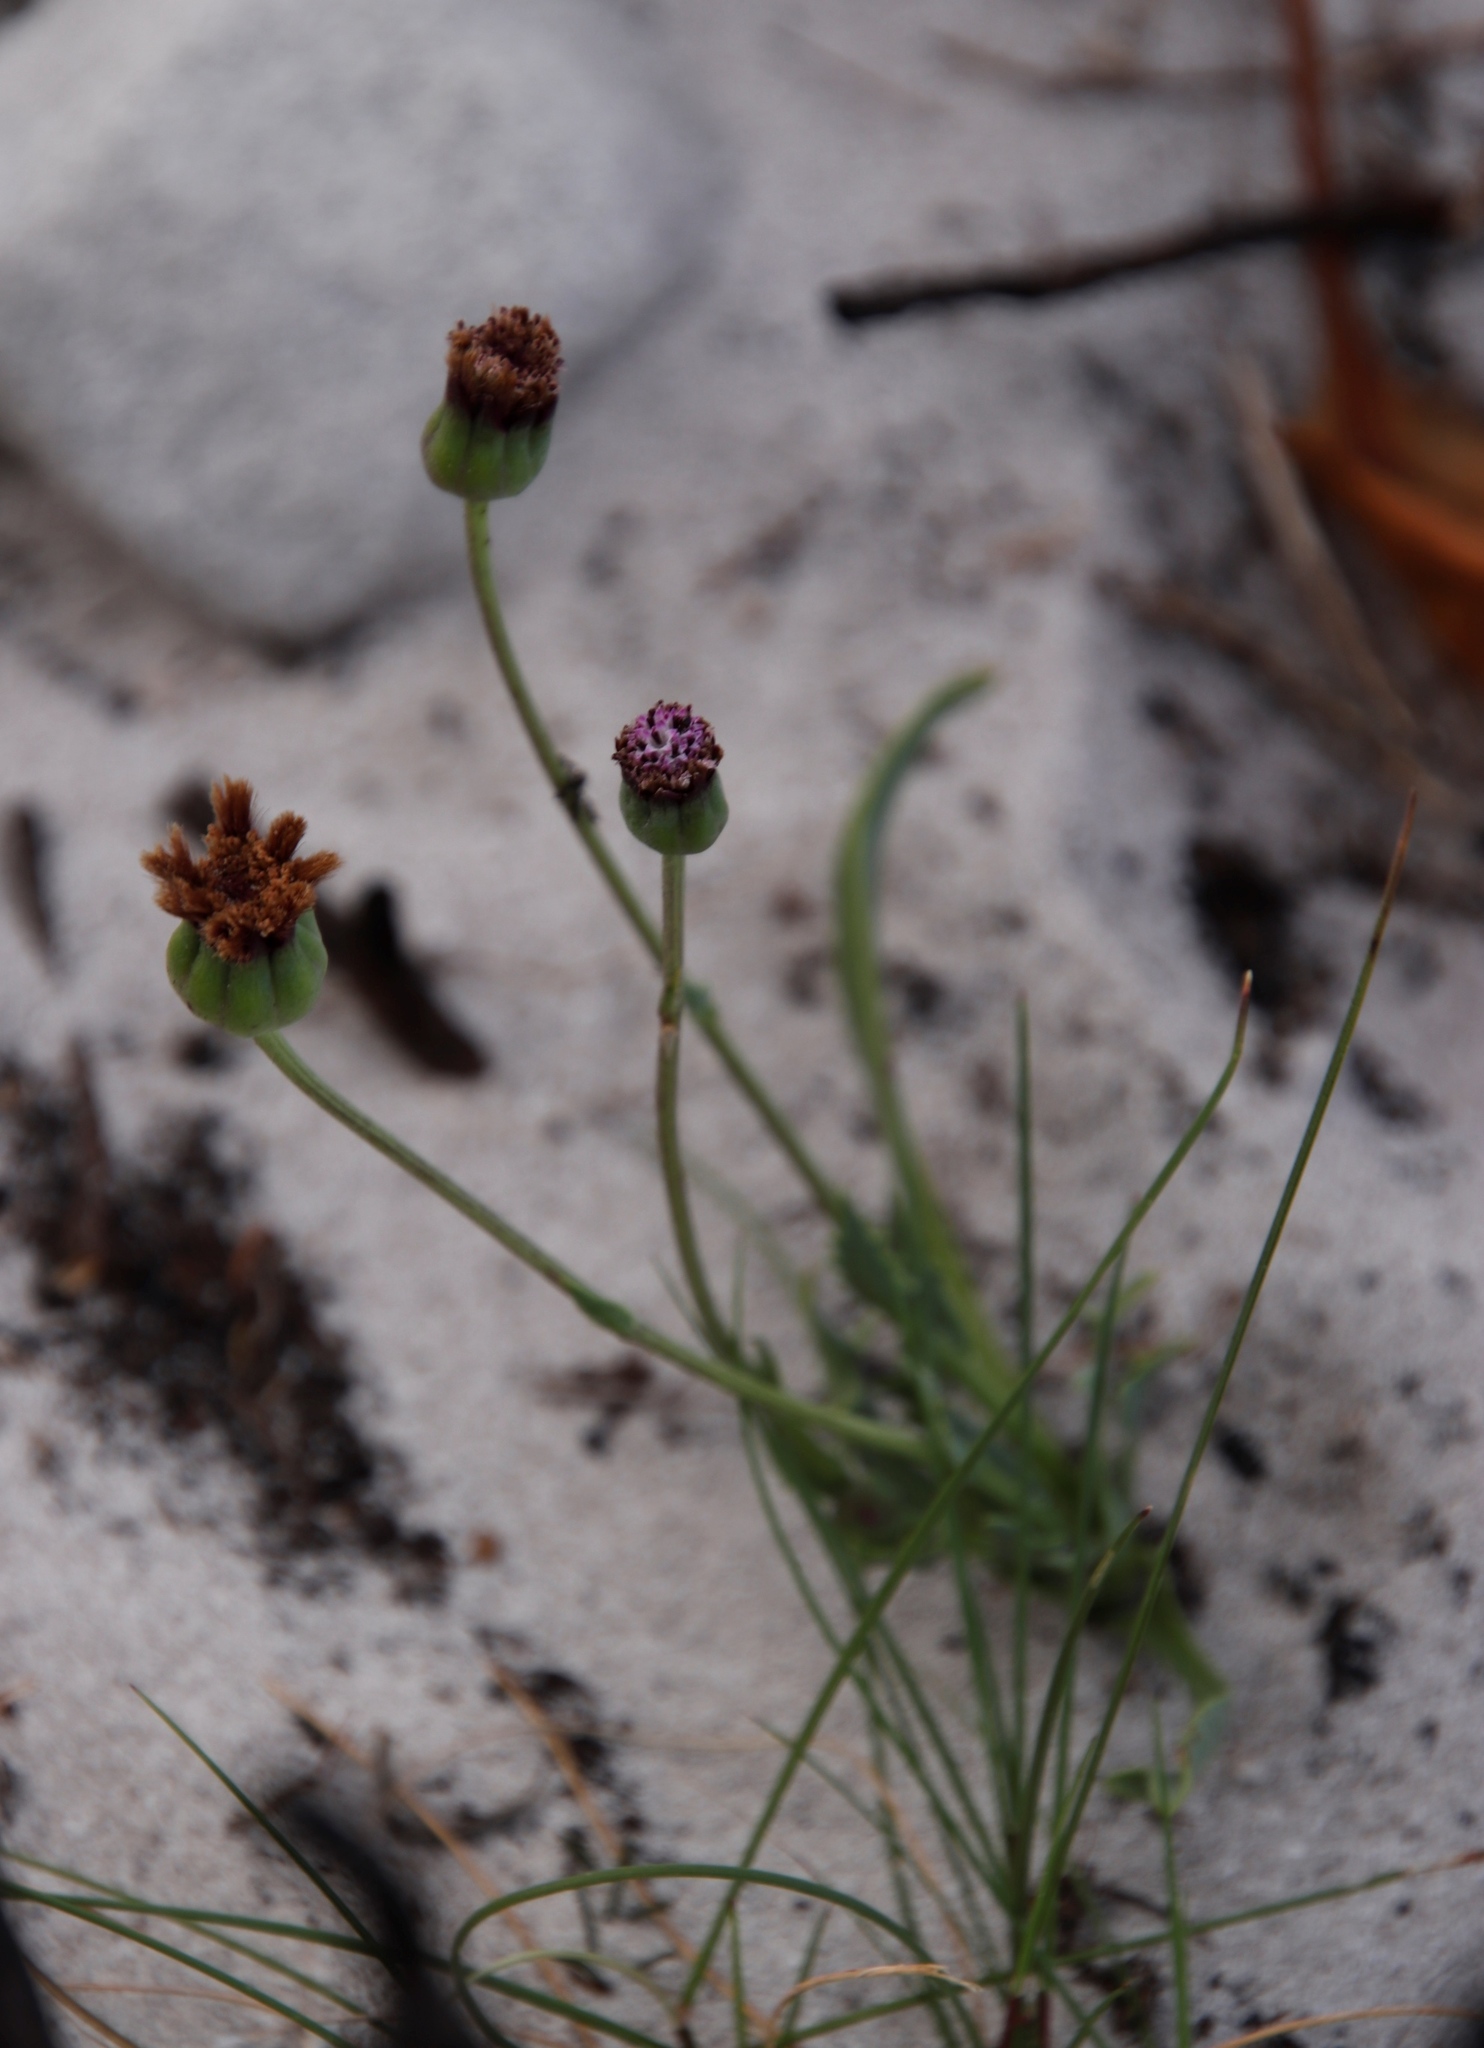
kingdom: Plantae
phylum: Tracheophyta
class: Magnoliopsida
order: Asterales
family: Asteraceae
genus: Othonna
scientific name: Othonna digitata
